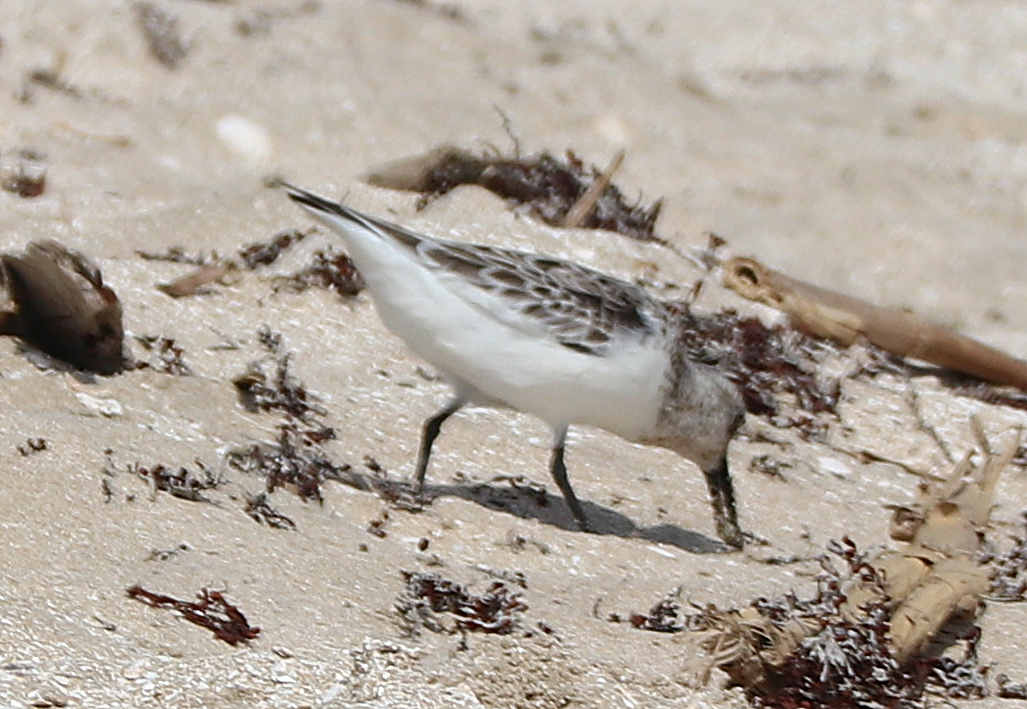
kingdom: Animalia
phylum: Chordata
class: Aves
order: Charadriiformes
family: Scolopacidae
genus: Calidris
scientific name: Calidris alba
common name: Sanderling
